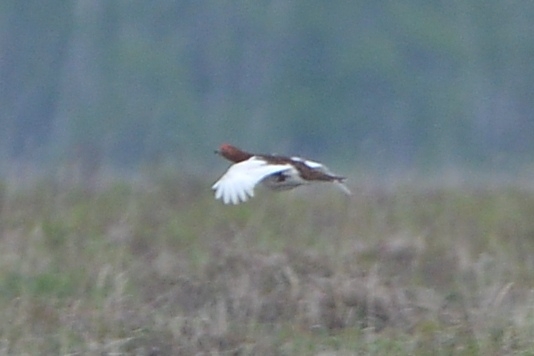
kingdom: Animalia
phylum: Chordata
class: Aves
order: Galliformes
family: Phasianidae
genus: Lagopus
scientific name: Lagopus lagopus
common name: Willow ptarmigan
